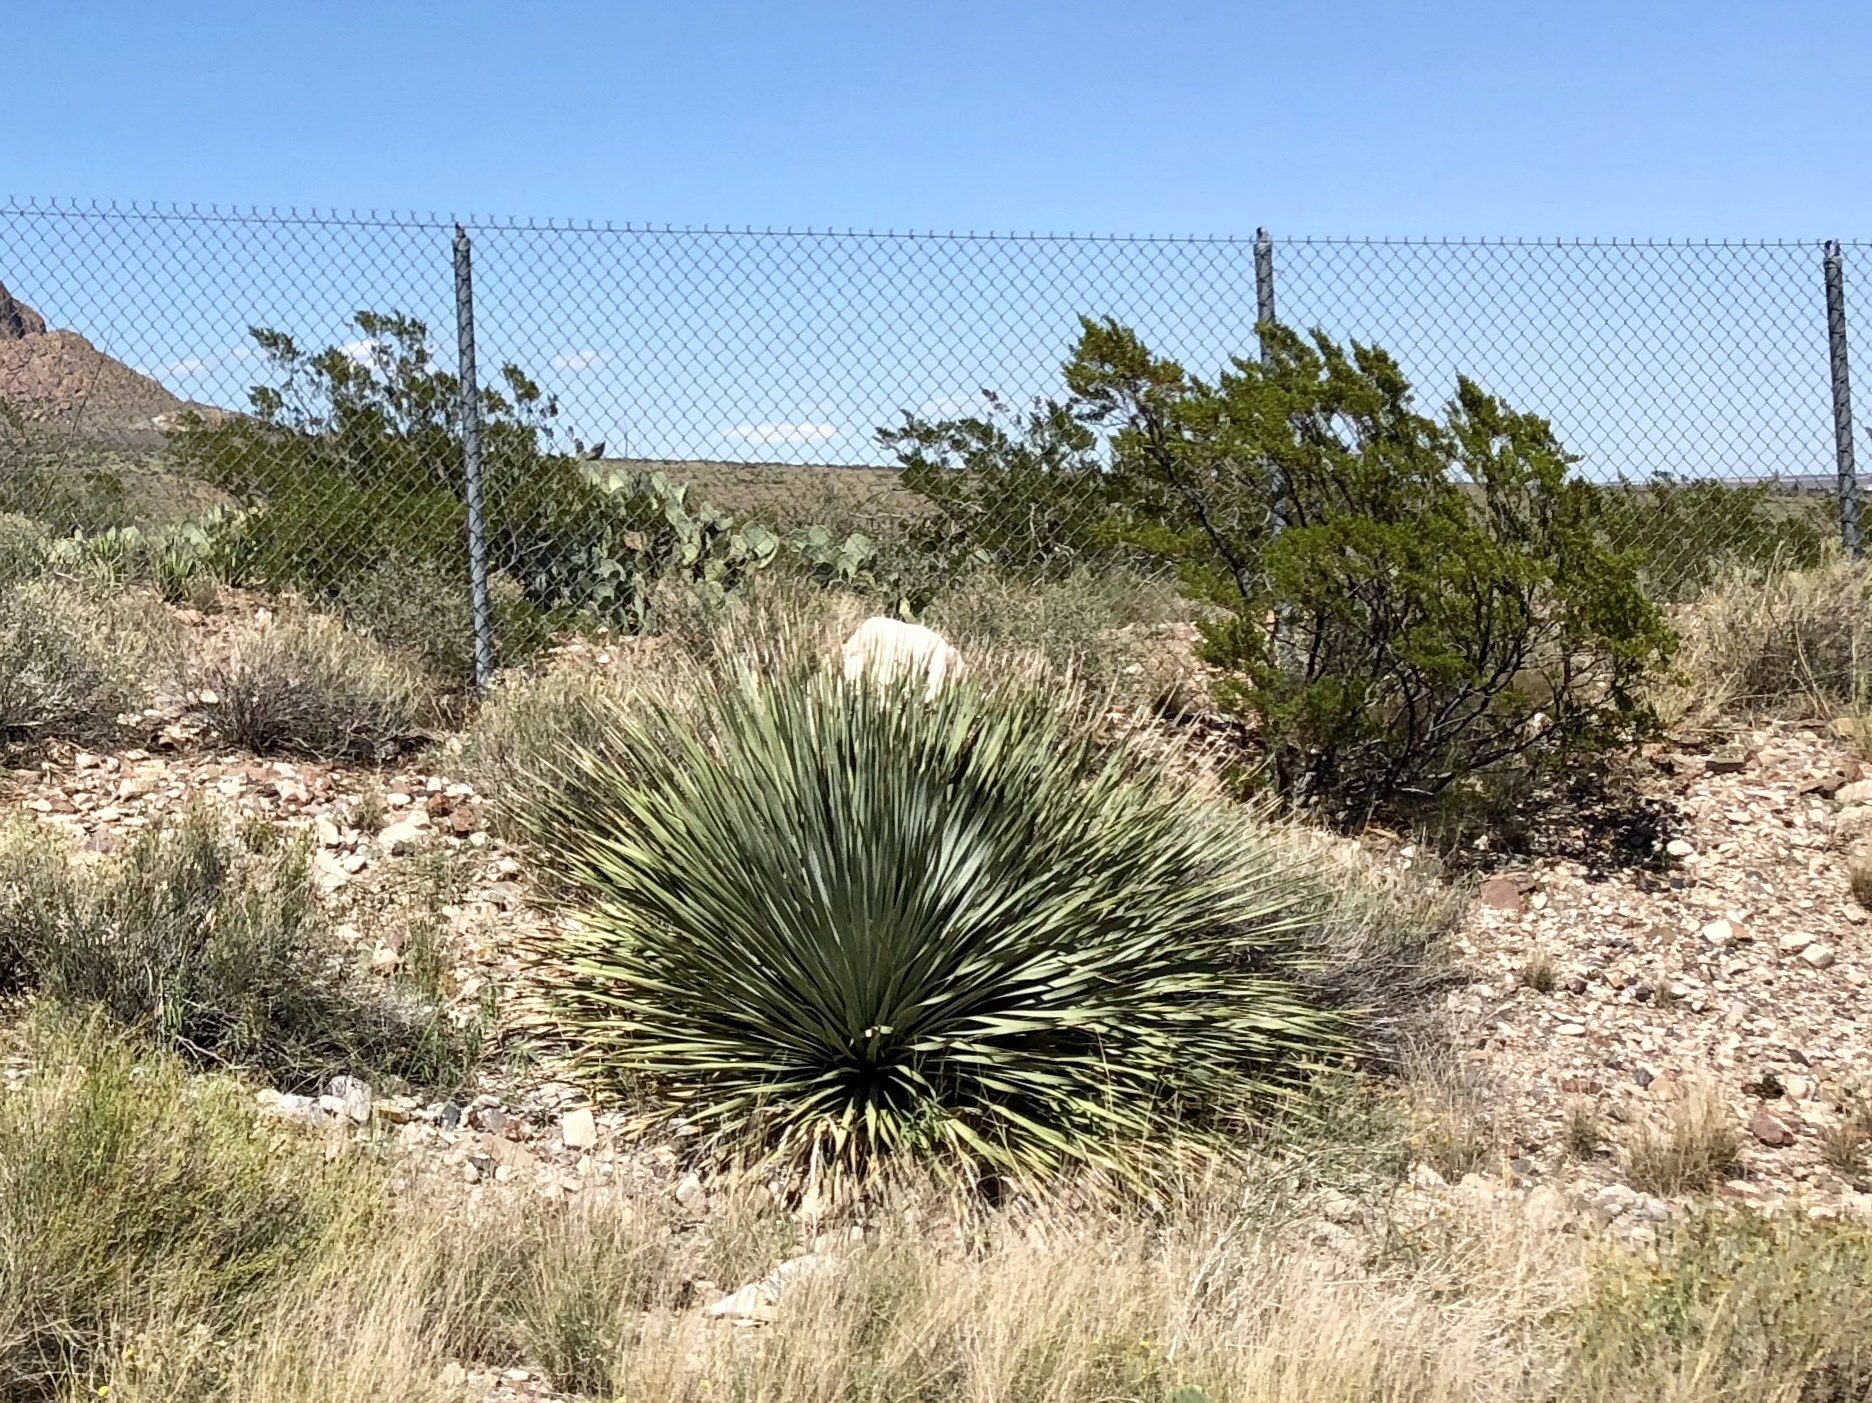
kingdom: Plantae
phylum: Tracheophyta
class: Liliopsida
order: Asparagales
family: Asparagaceae
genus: Dasylirion
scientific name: Dasylirion wheeleri
